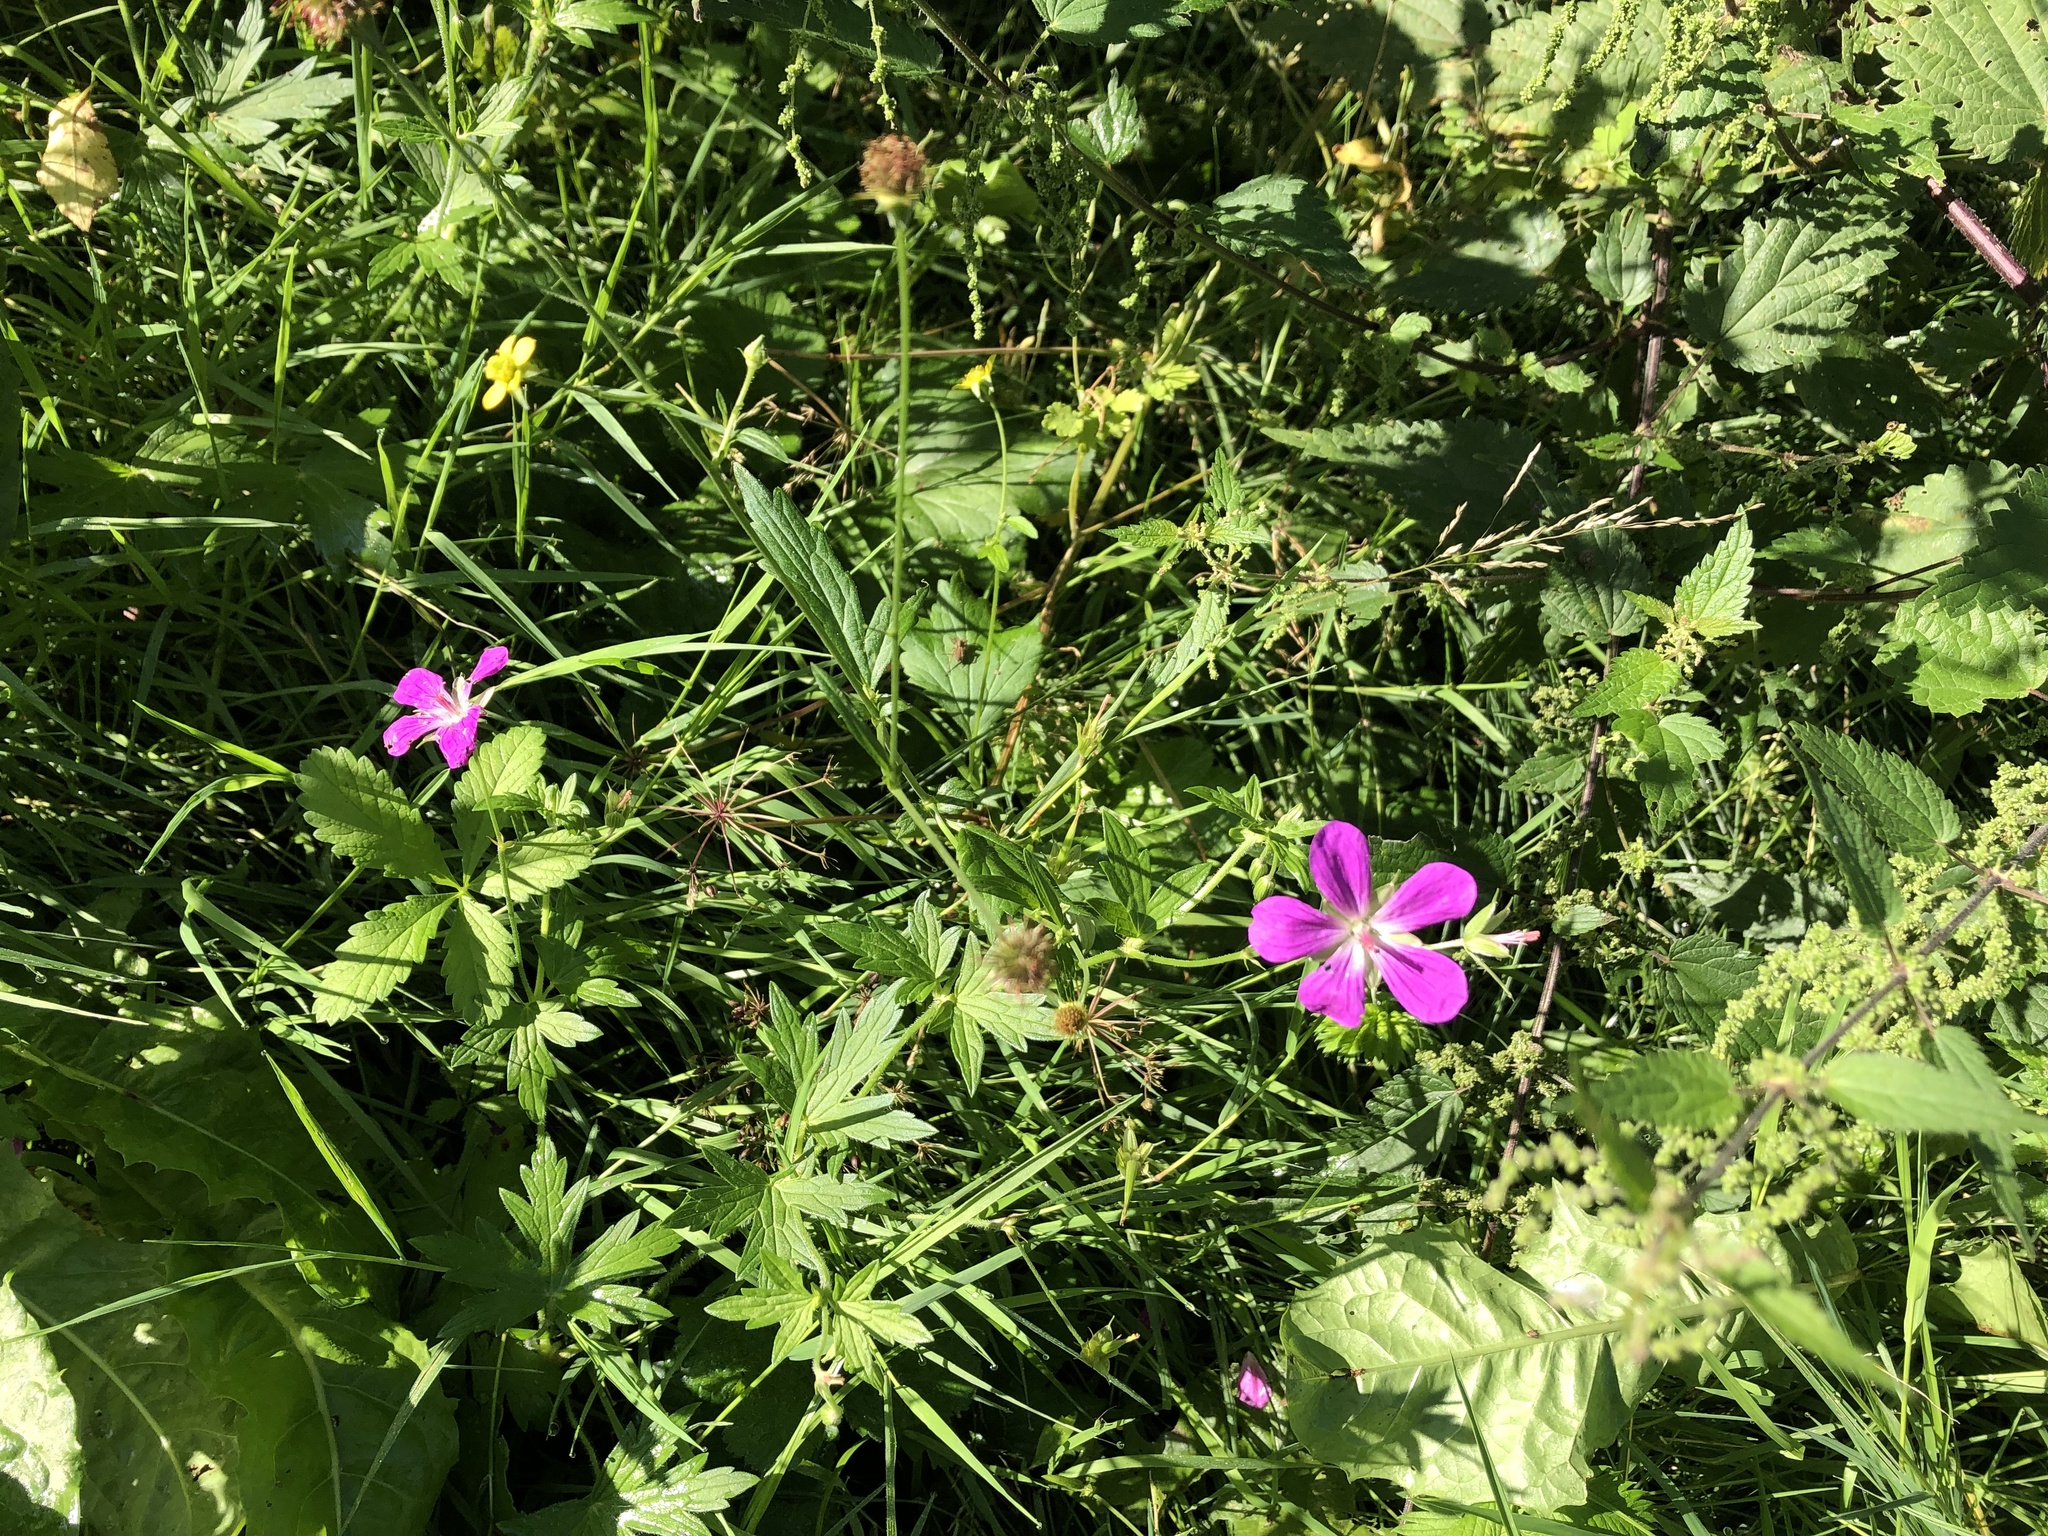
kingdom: Plantae
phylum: Tracheophyta
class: Magnoliopsida
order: Geraniales
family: Geraniaceae
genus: Geranium
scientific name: Geranium palustre
